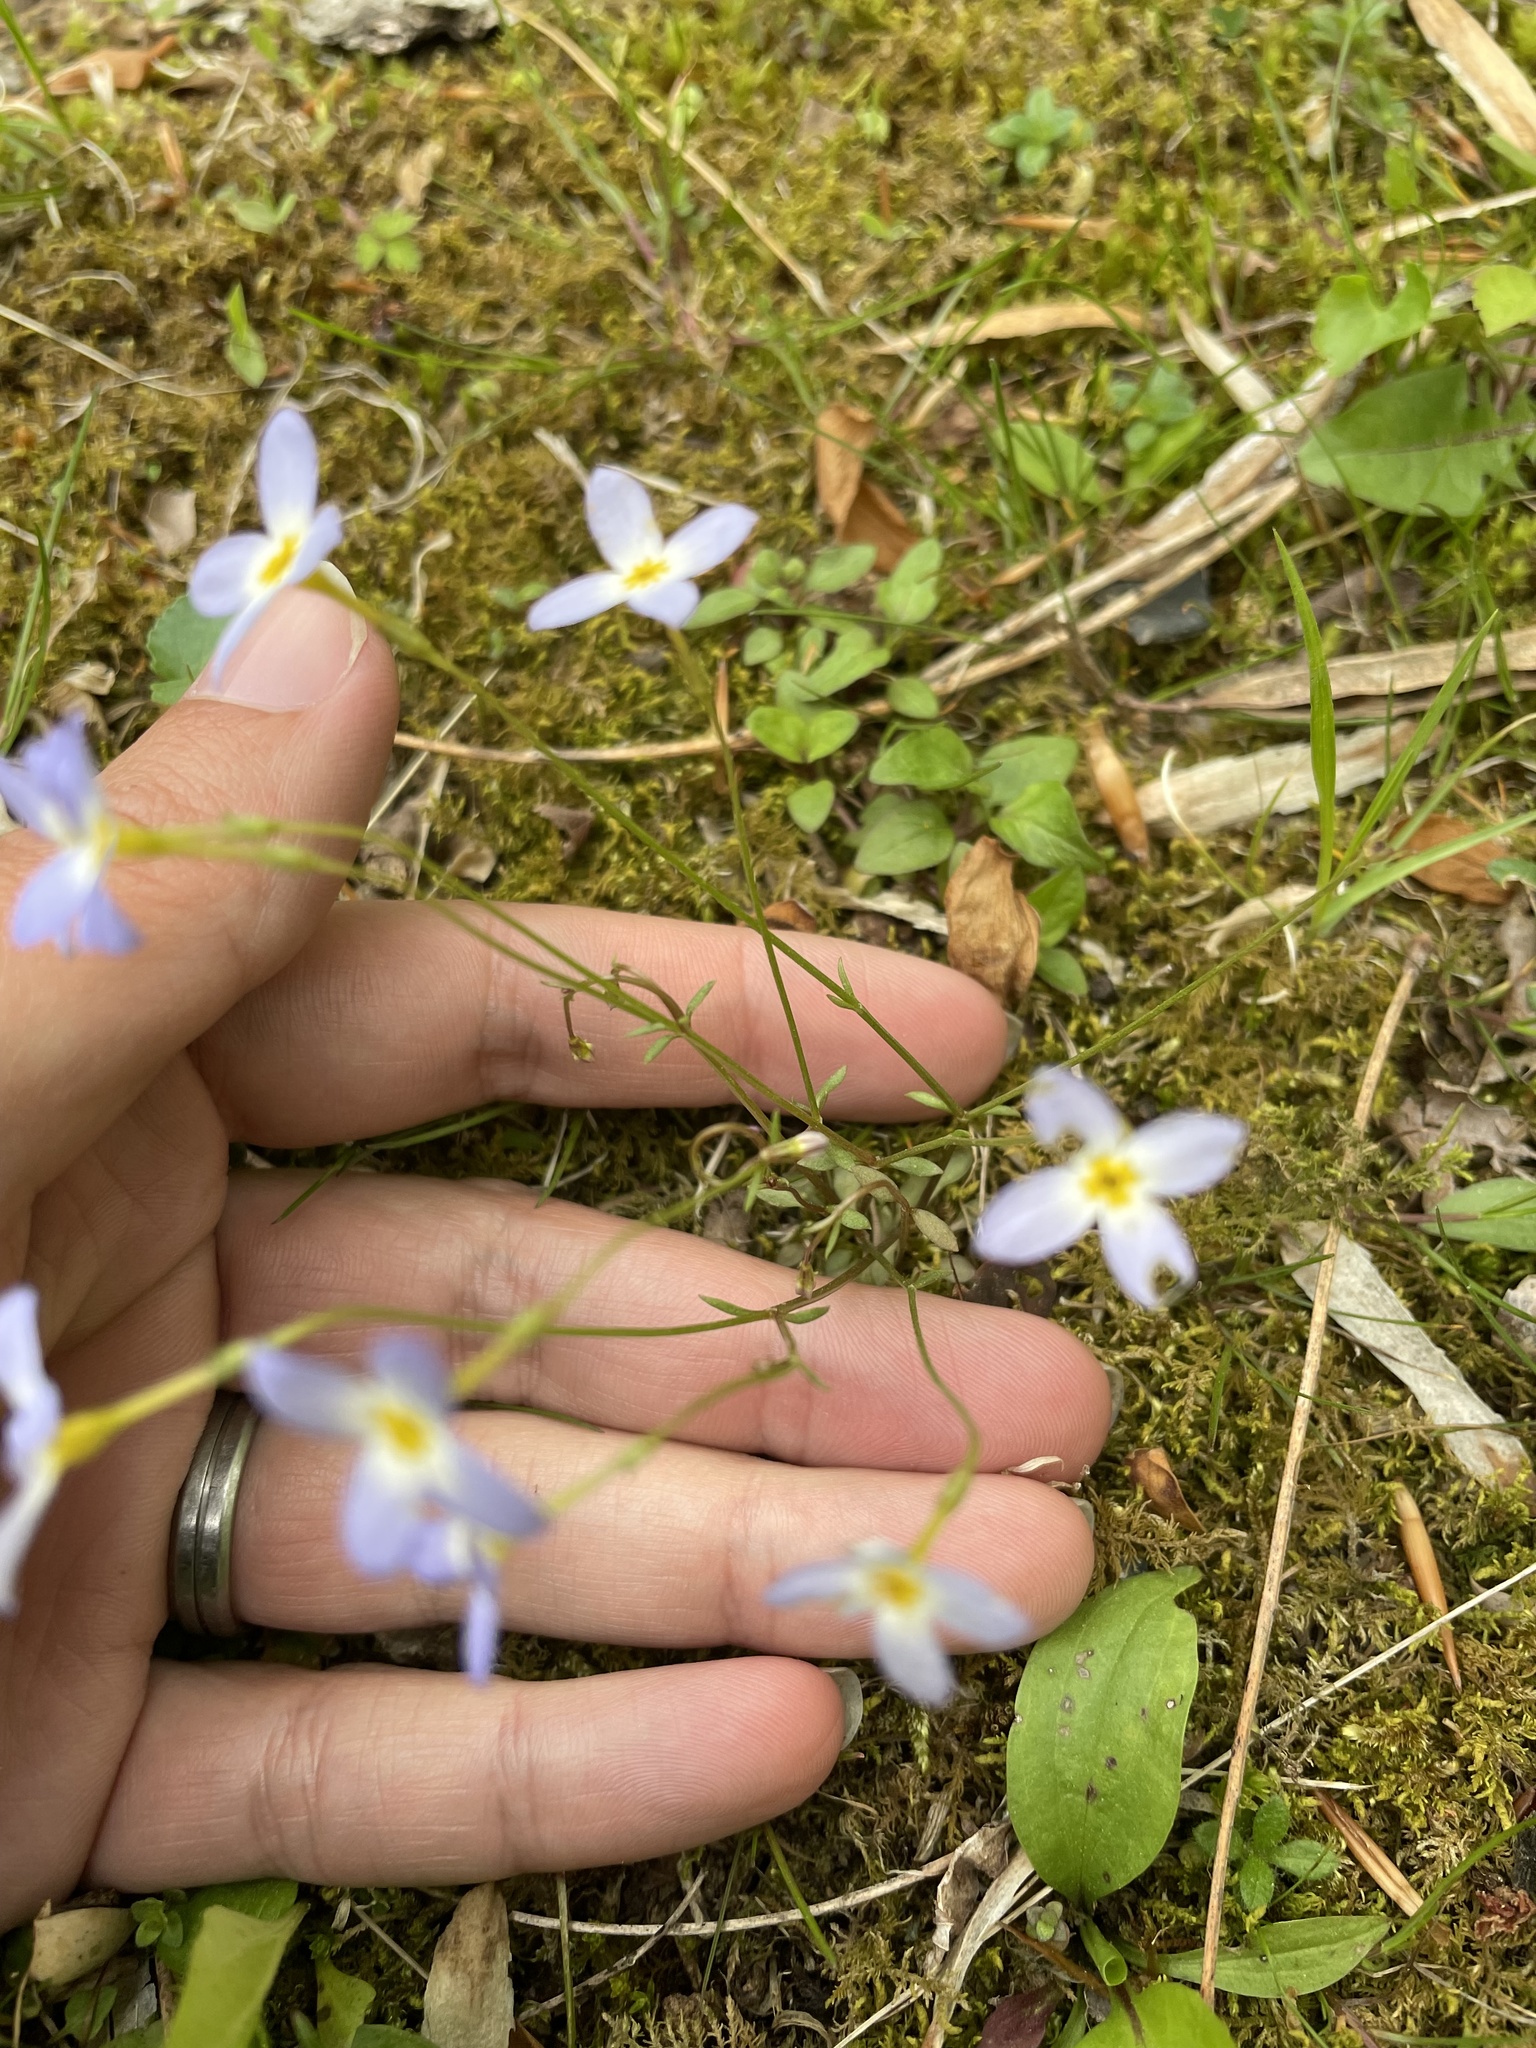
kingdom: Plantae
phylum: Tracheophyta
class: Magnoliopsida
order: Gentianales
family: Rubiaceae
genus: Houstonia
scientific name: Houstonia caerulea
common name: Bluets
